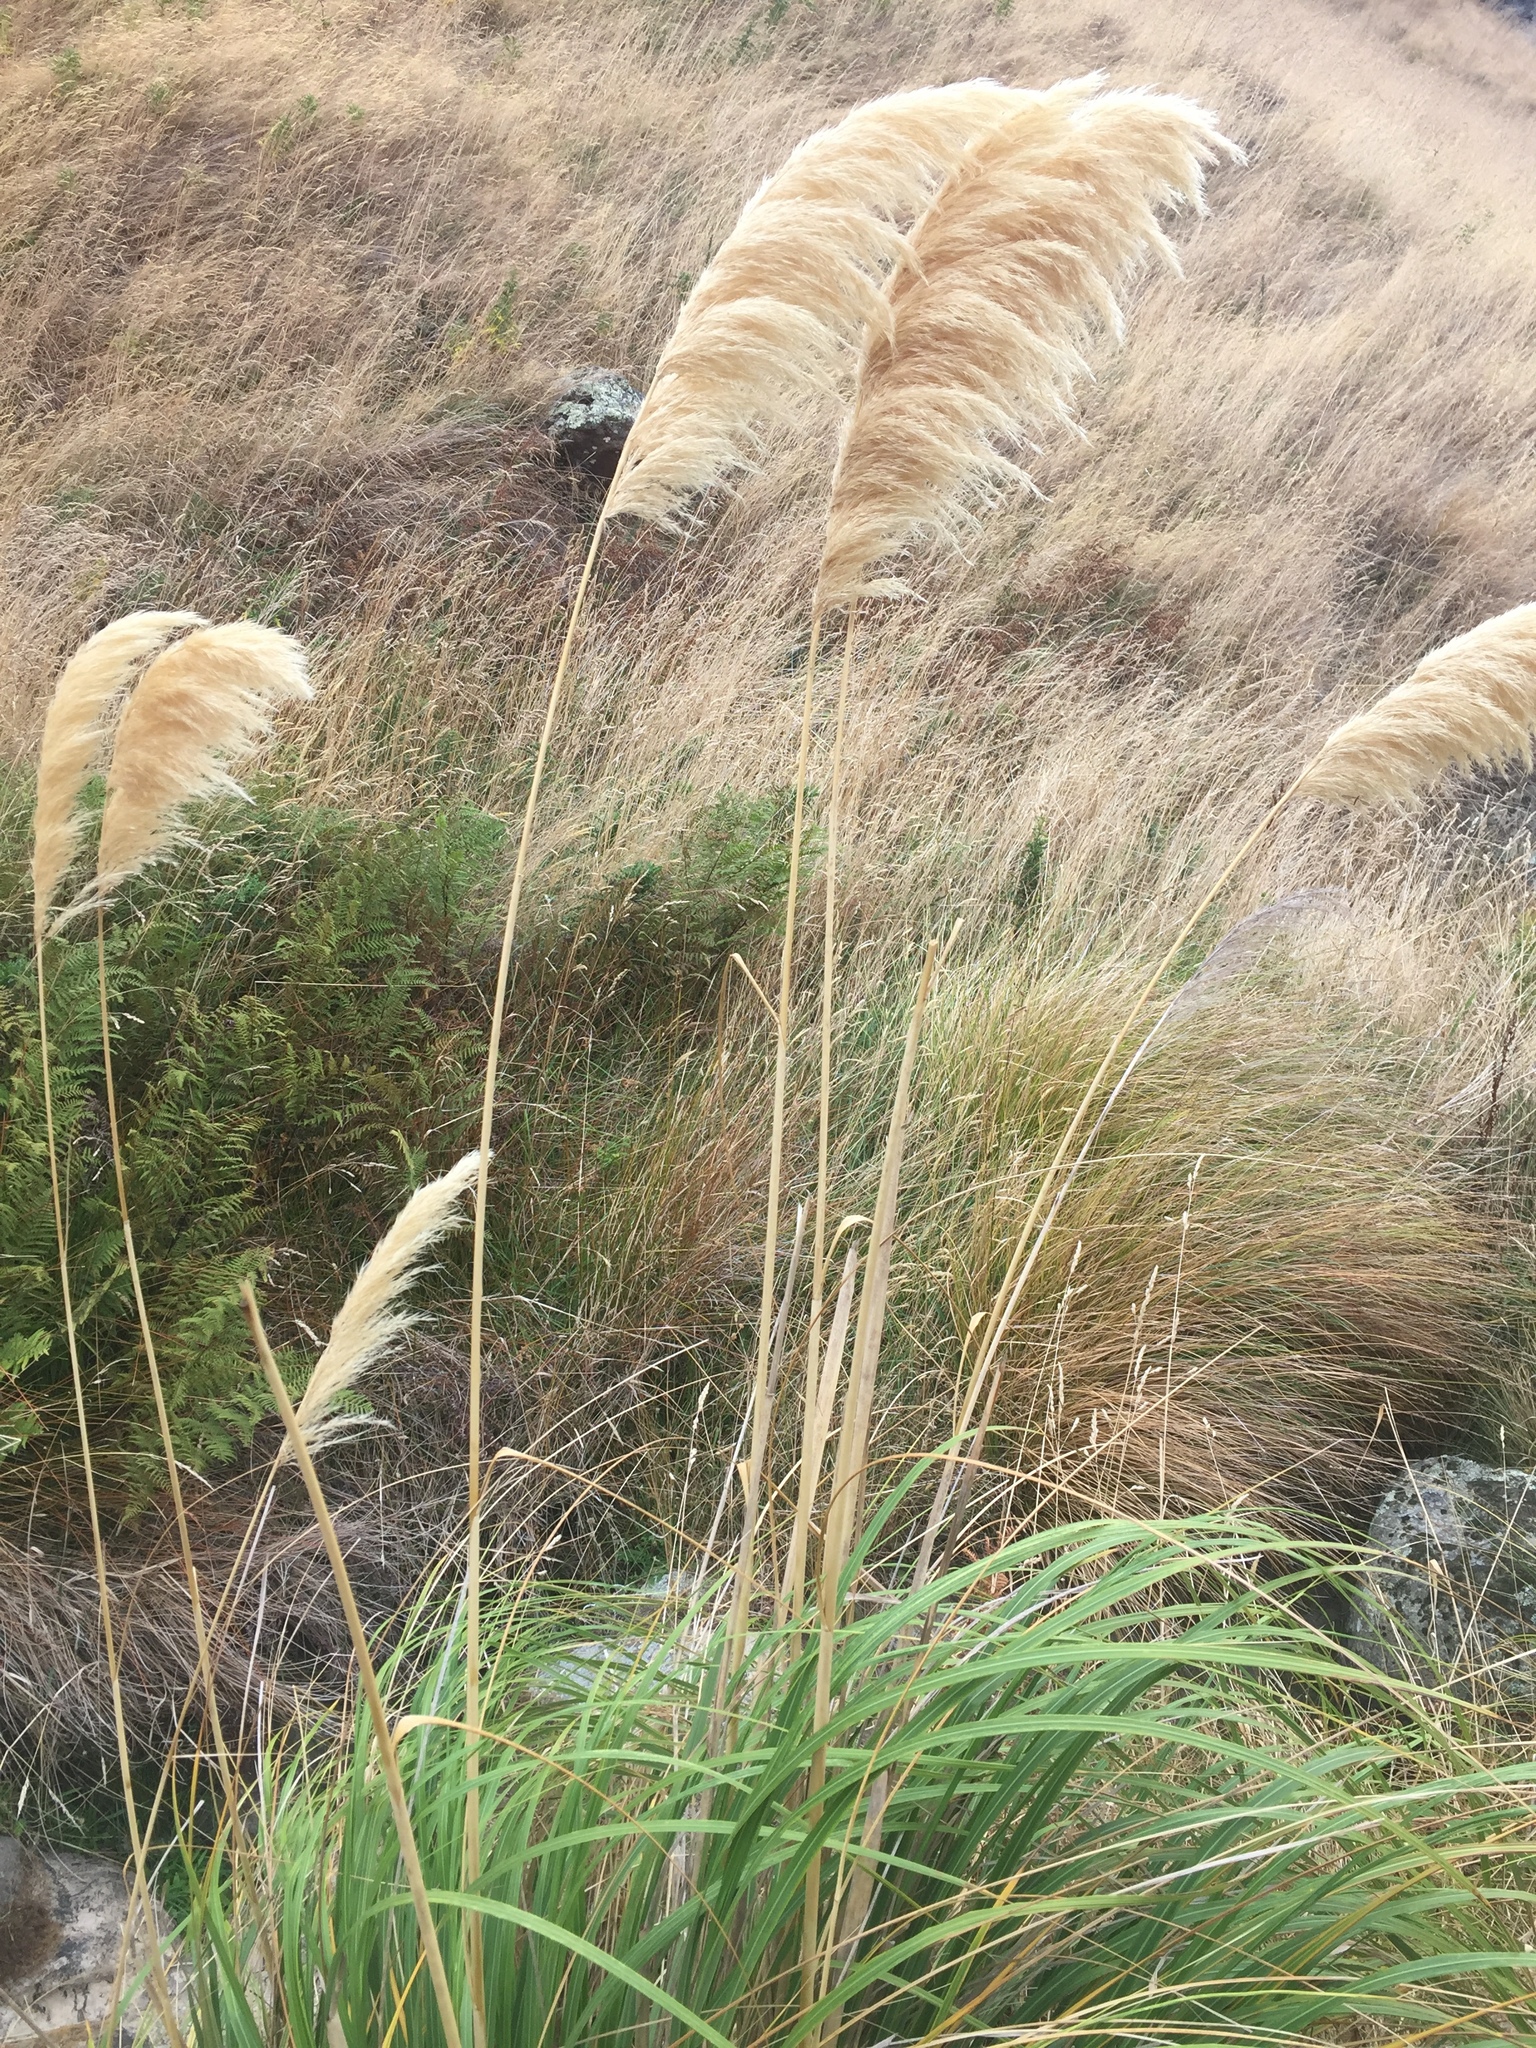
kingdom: Plantae
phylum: Tracheophyta
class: Liliopsida
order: Poales
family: Poaceae
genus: Austroderia
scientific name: Austroderia richardii
